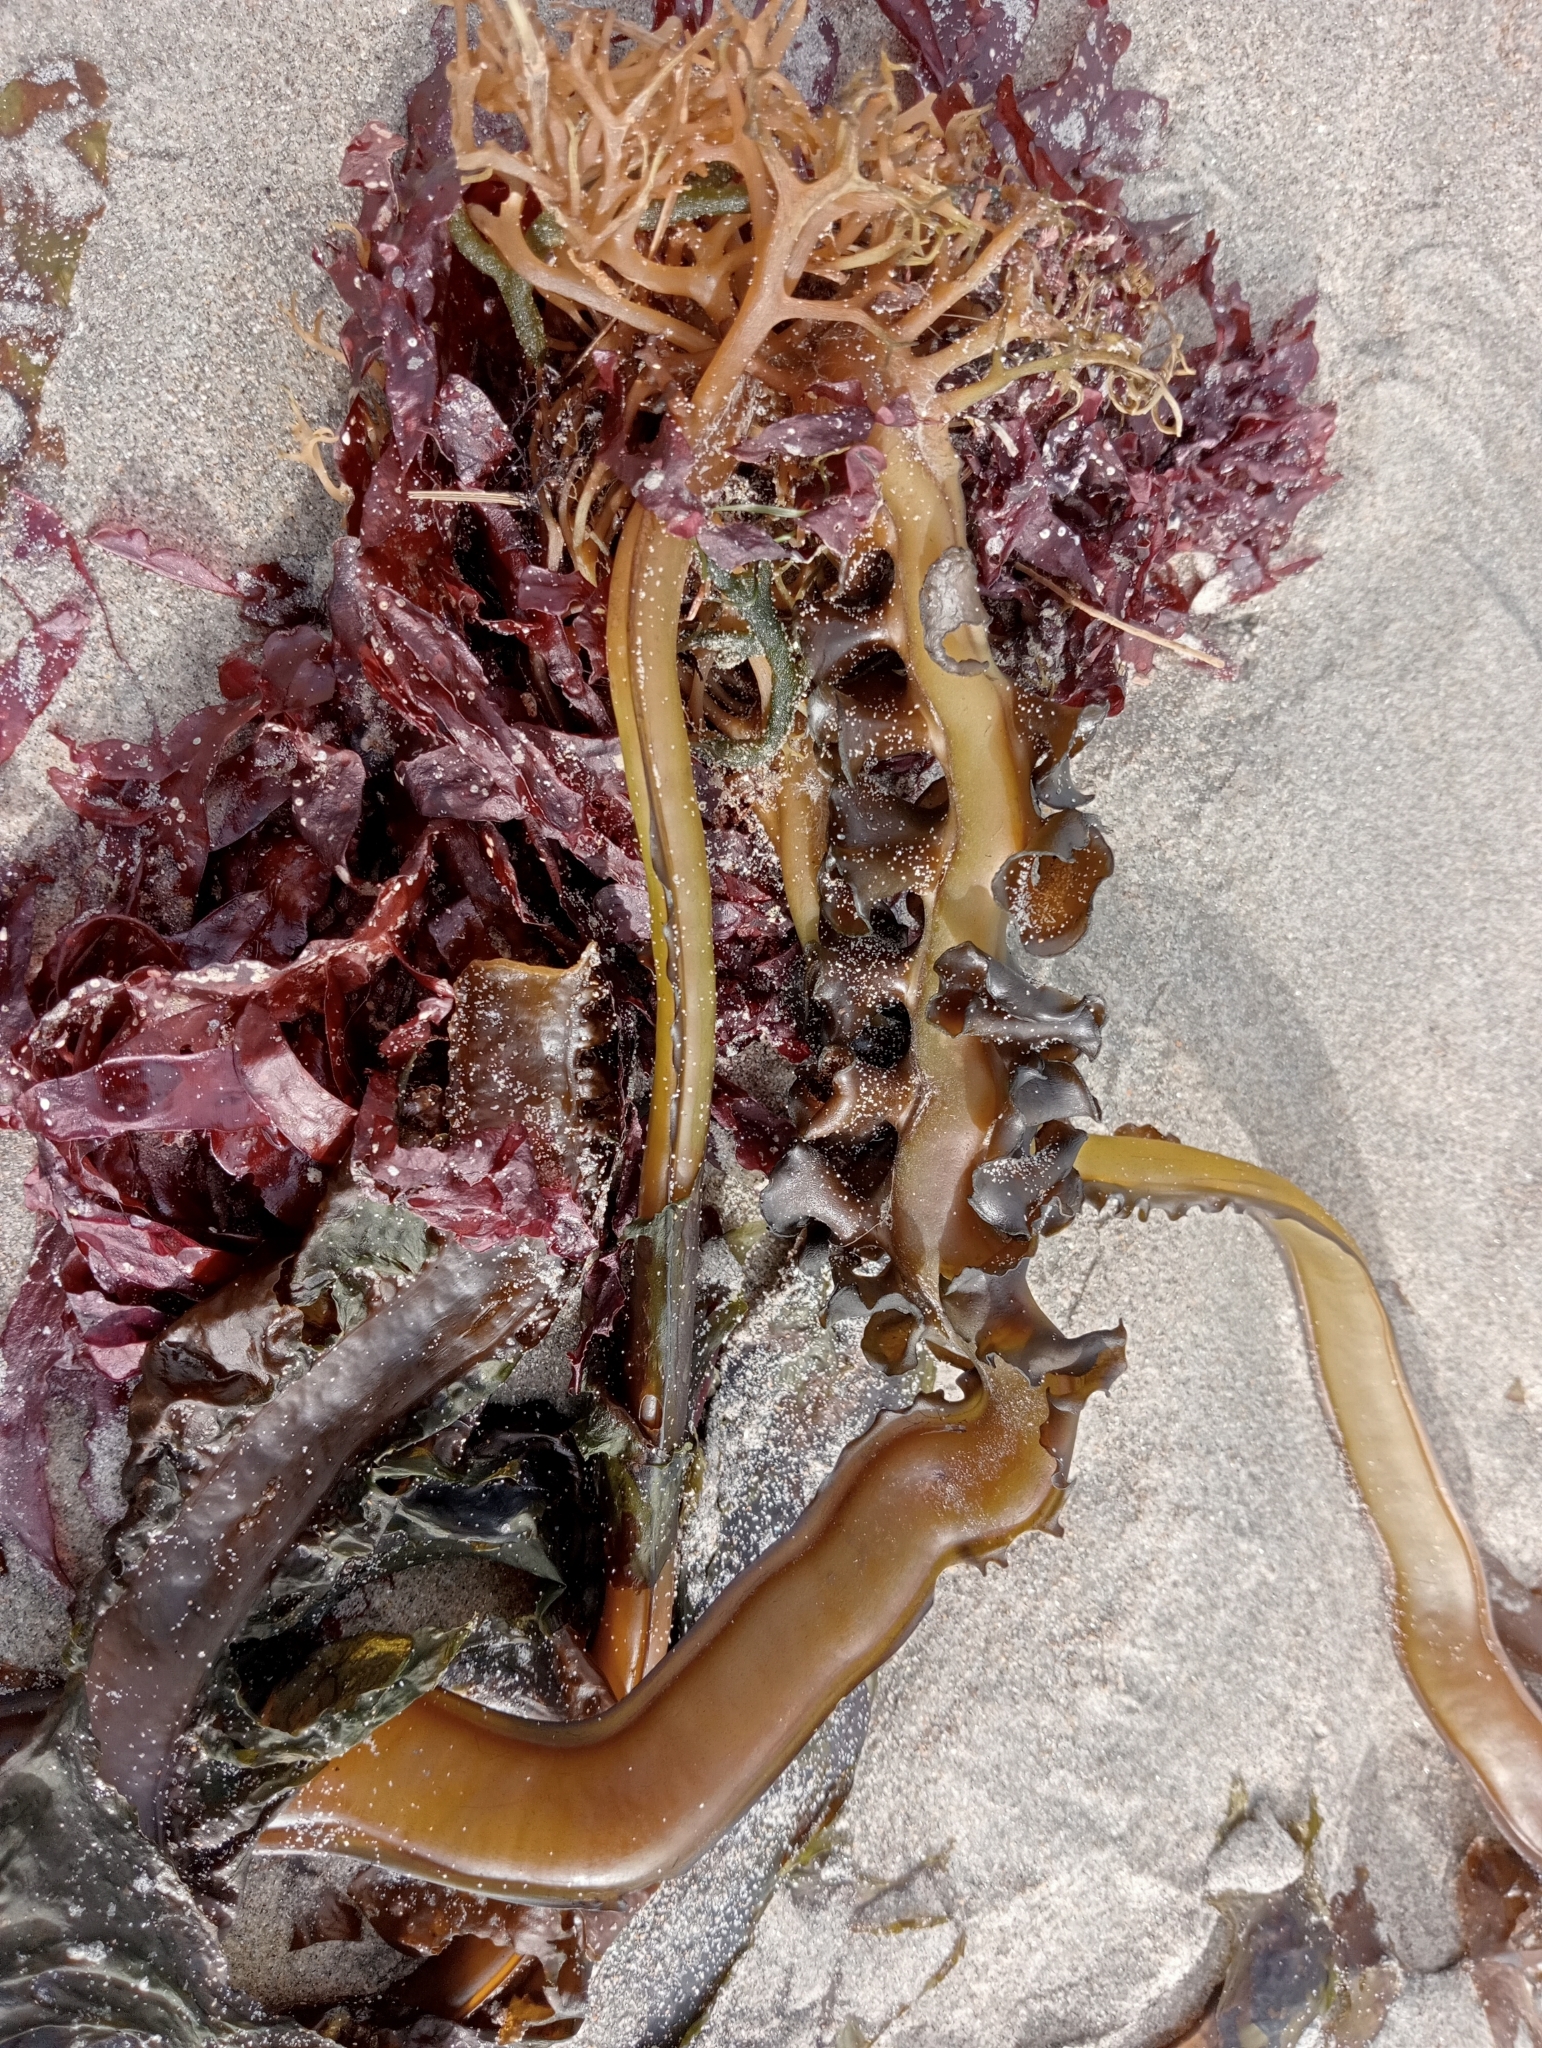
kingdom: Chromista
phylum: Ochrophyta
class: Phaeophyceae
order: Laminariales
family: Alariaceae
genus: Undaria
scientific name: Undaria pinnatifida
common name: Asian kelp
